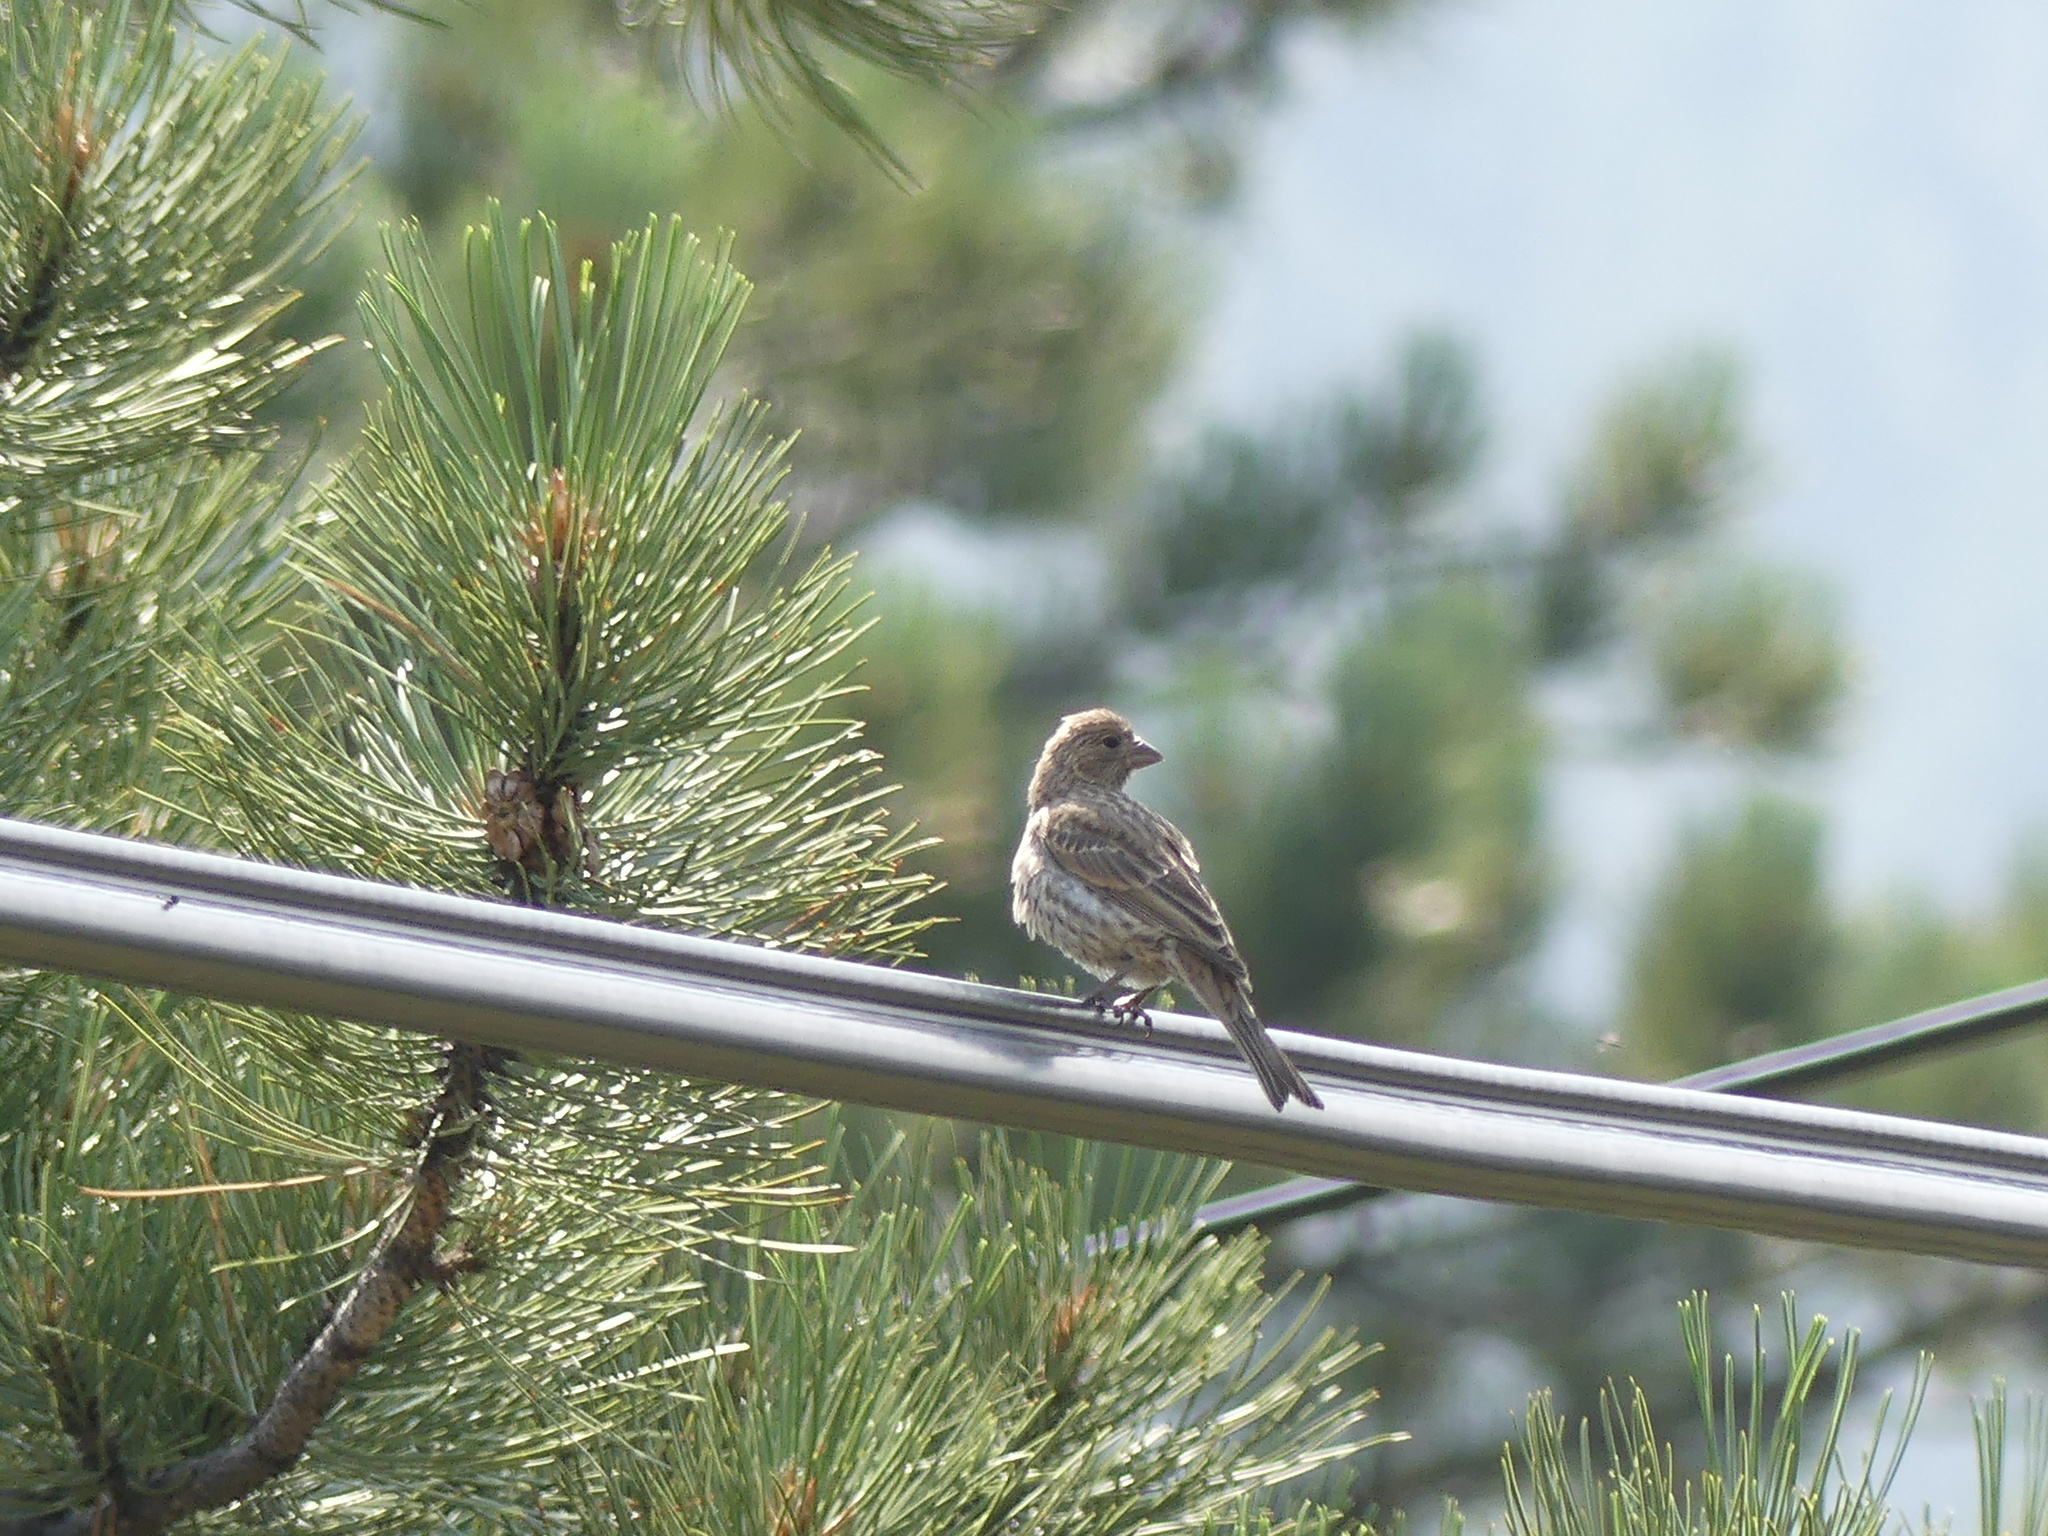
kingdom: Animalia
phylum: Chordata
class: Aves
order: Passeriformes
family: Fringillidae
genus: Haemorhous
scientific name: Haemorhous mexicanus
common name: House finch
